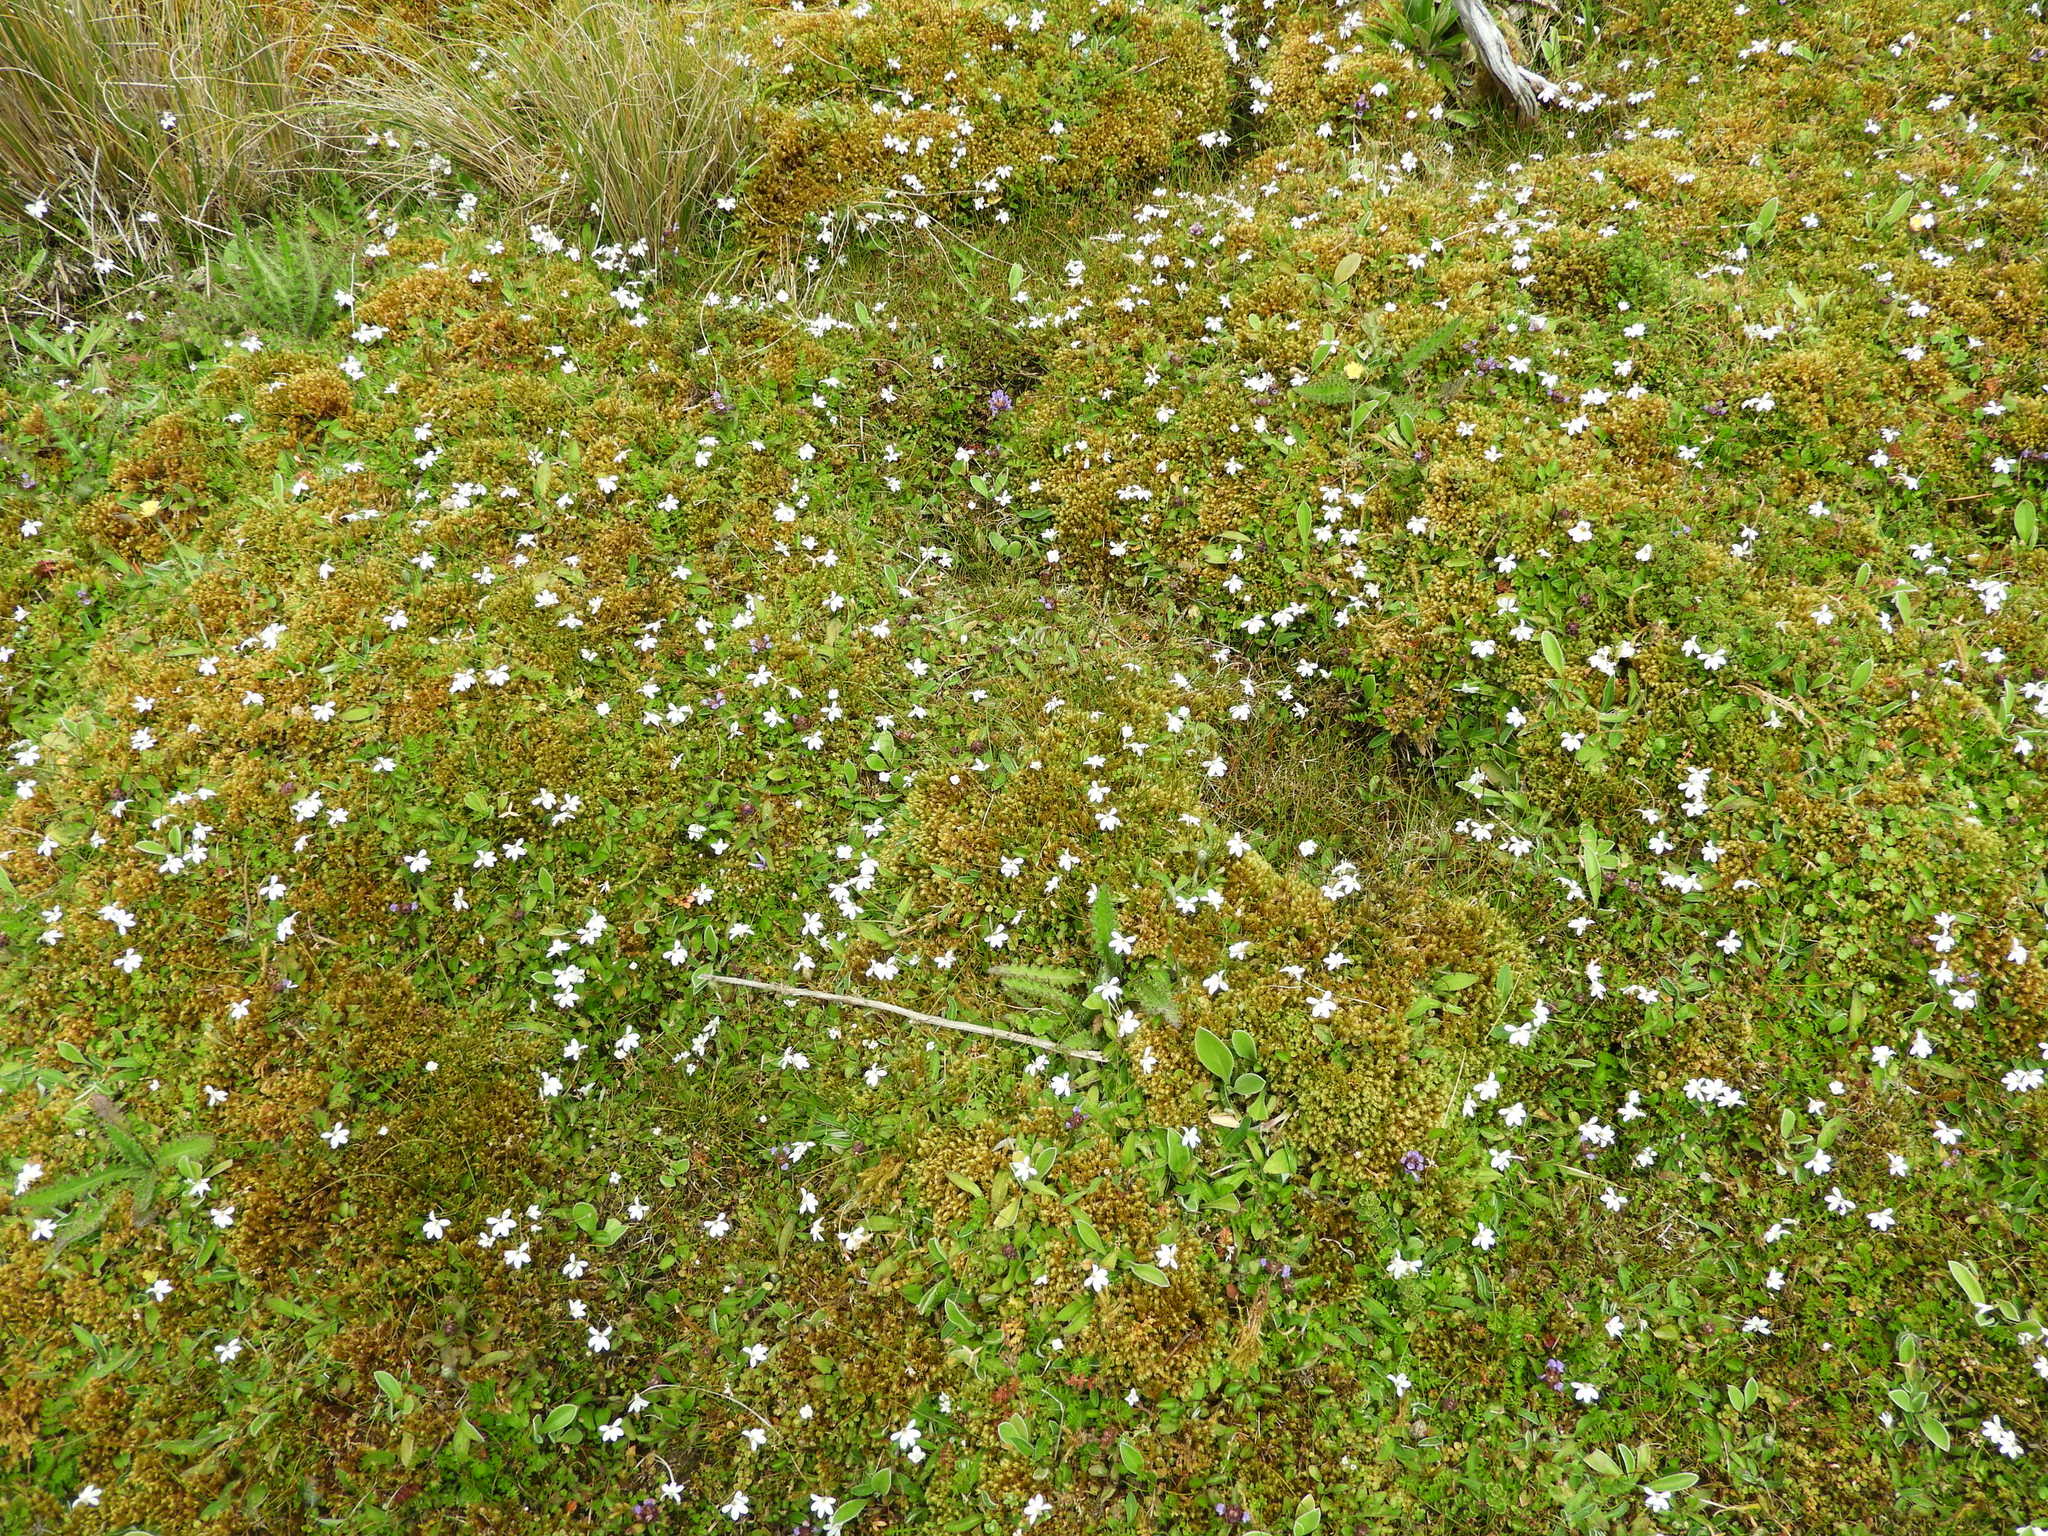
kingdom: Plantae
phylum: Tracheophyta
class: Magnoliopsida
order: Asterales
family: Campanulaceae
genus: Lobelia
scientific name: Lobelia angulata
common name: Lawn lobelia
